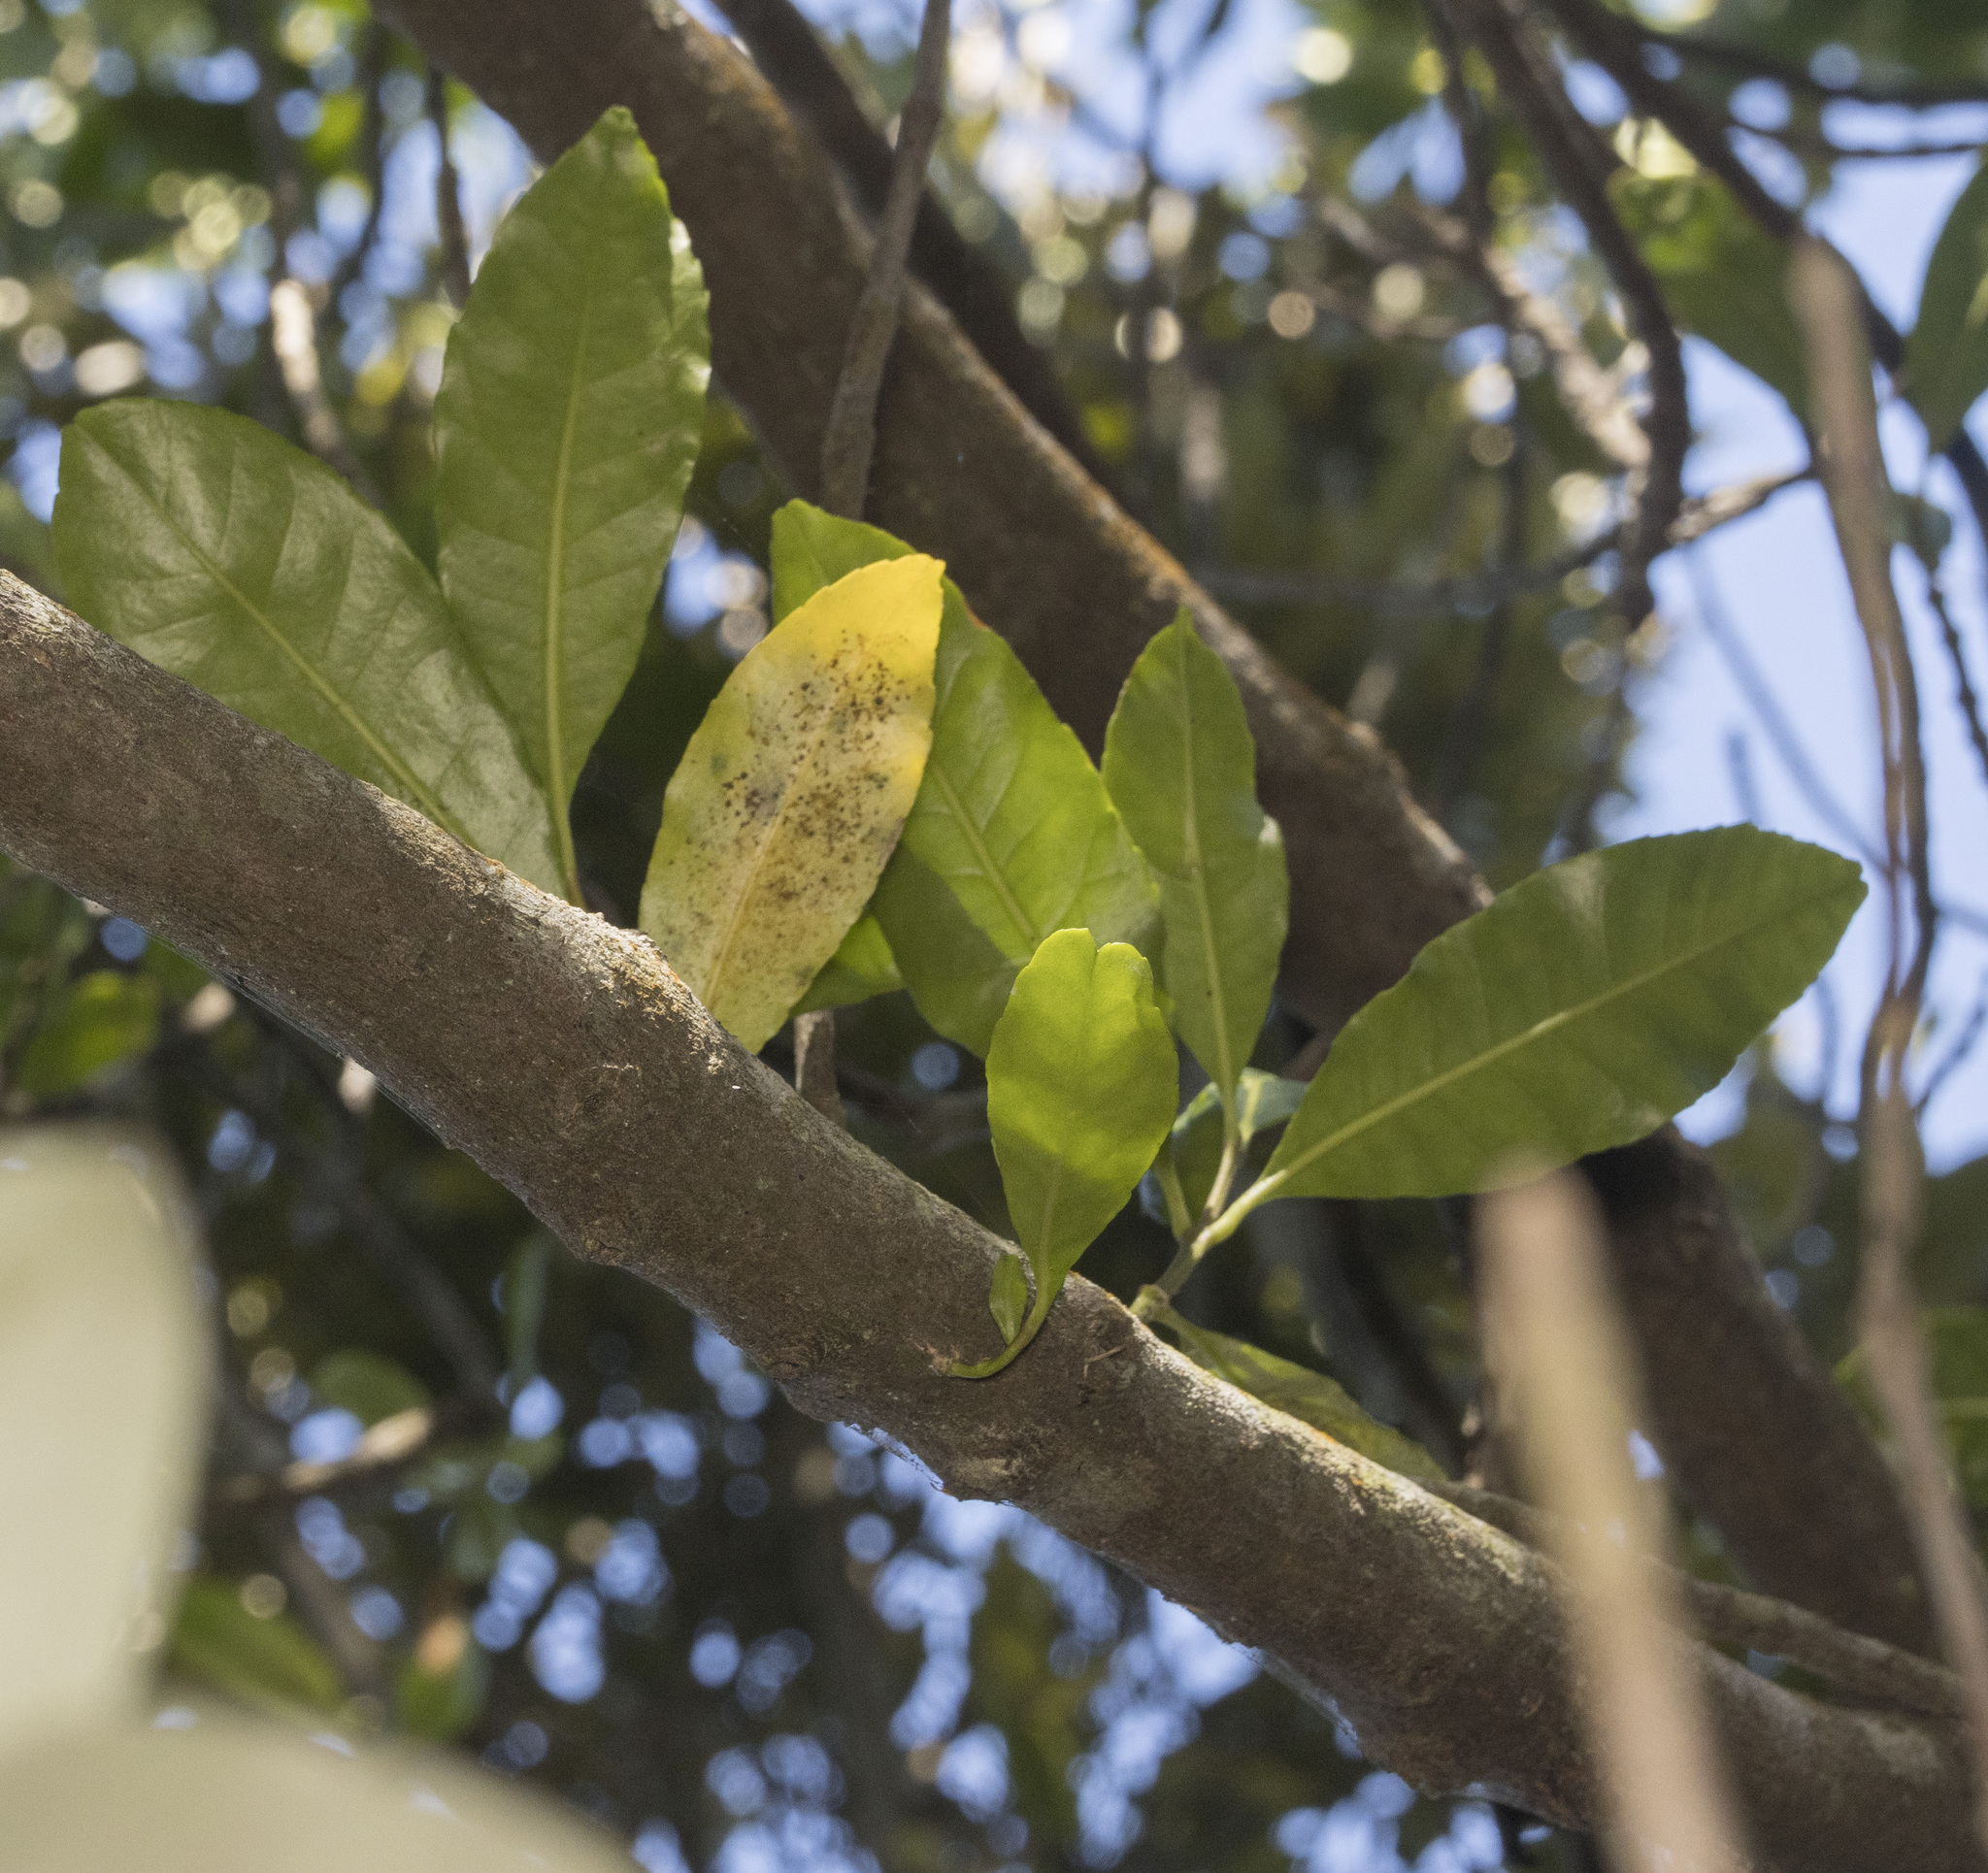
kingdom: Plantae
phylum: Tracheophyta
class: Magnoliopsida
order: Sapindales
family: Rutaceae
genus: Pitavia
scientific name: Pitavia punctata
